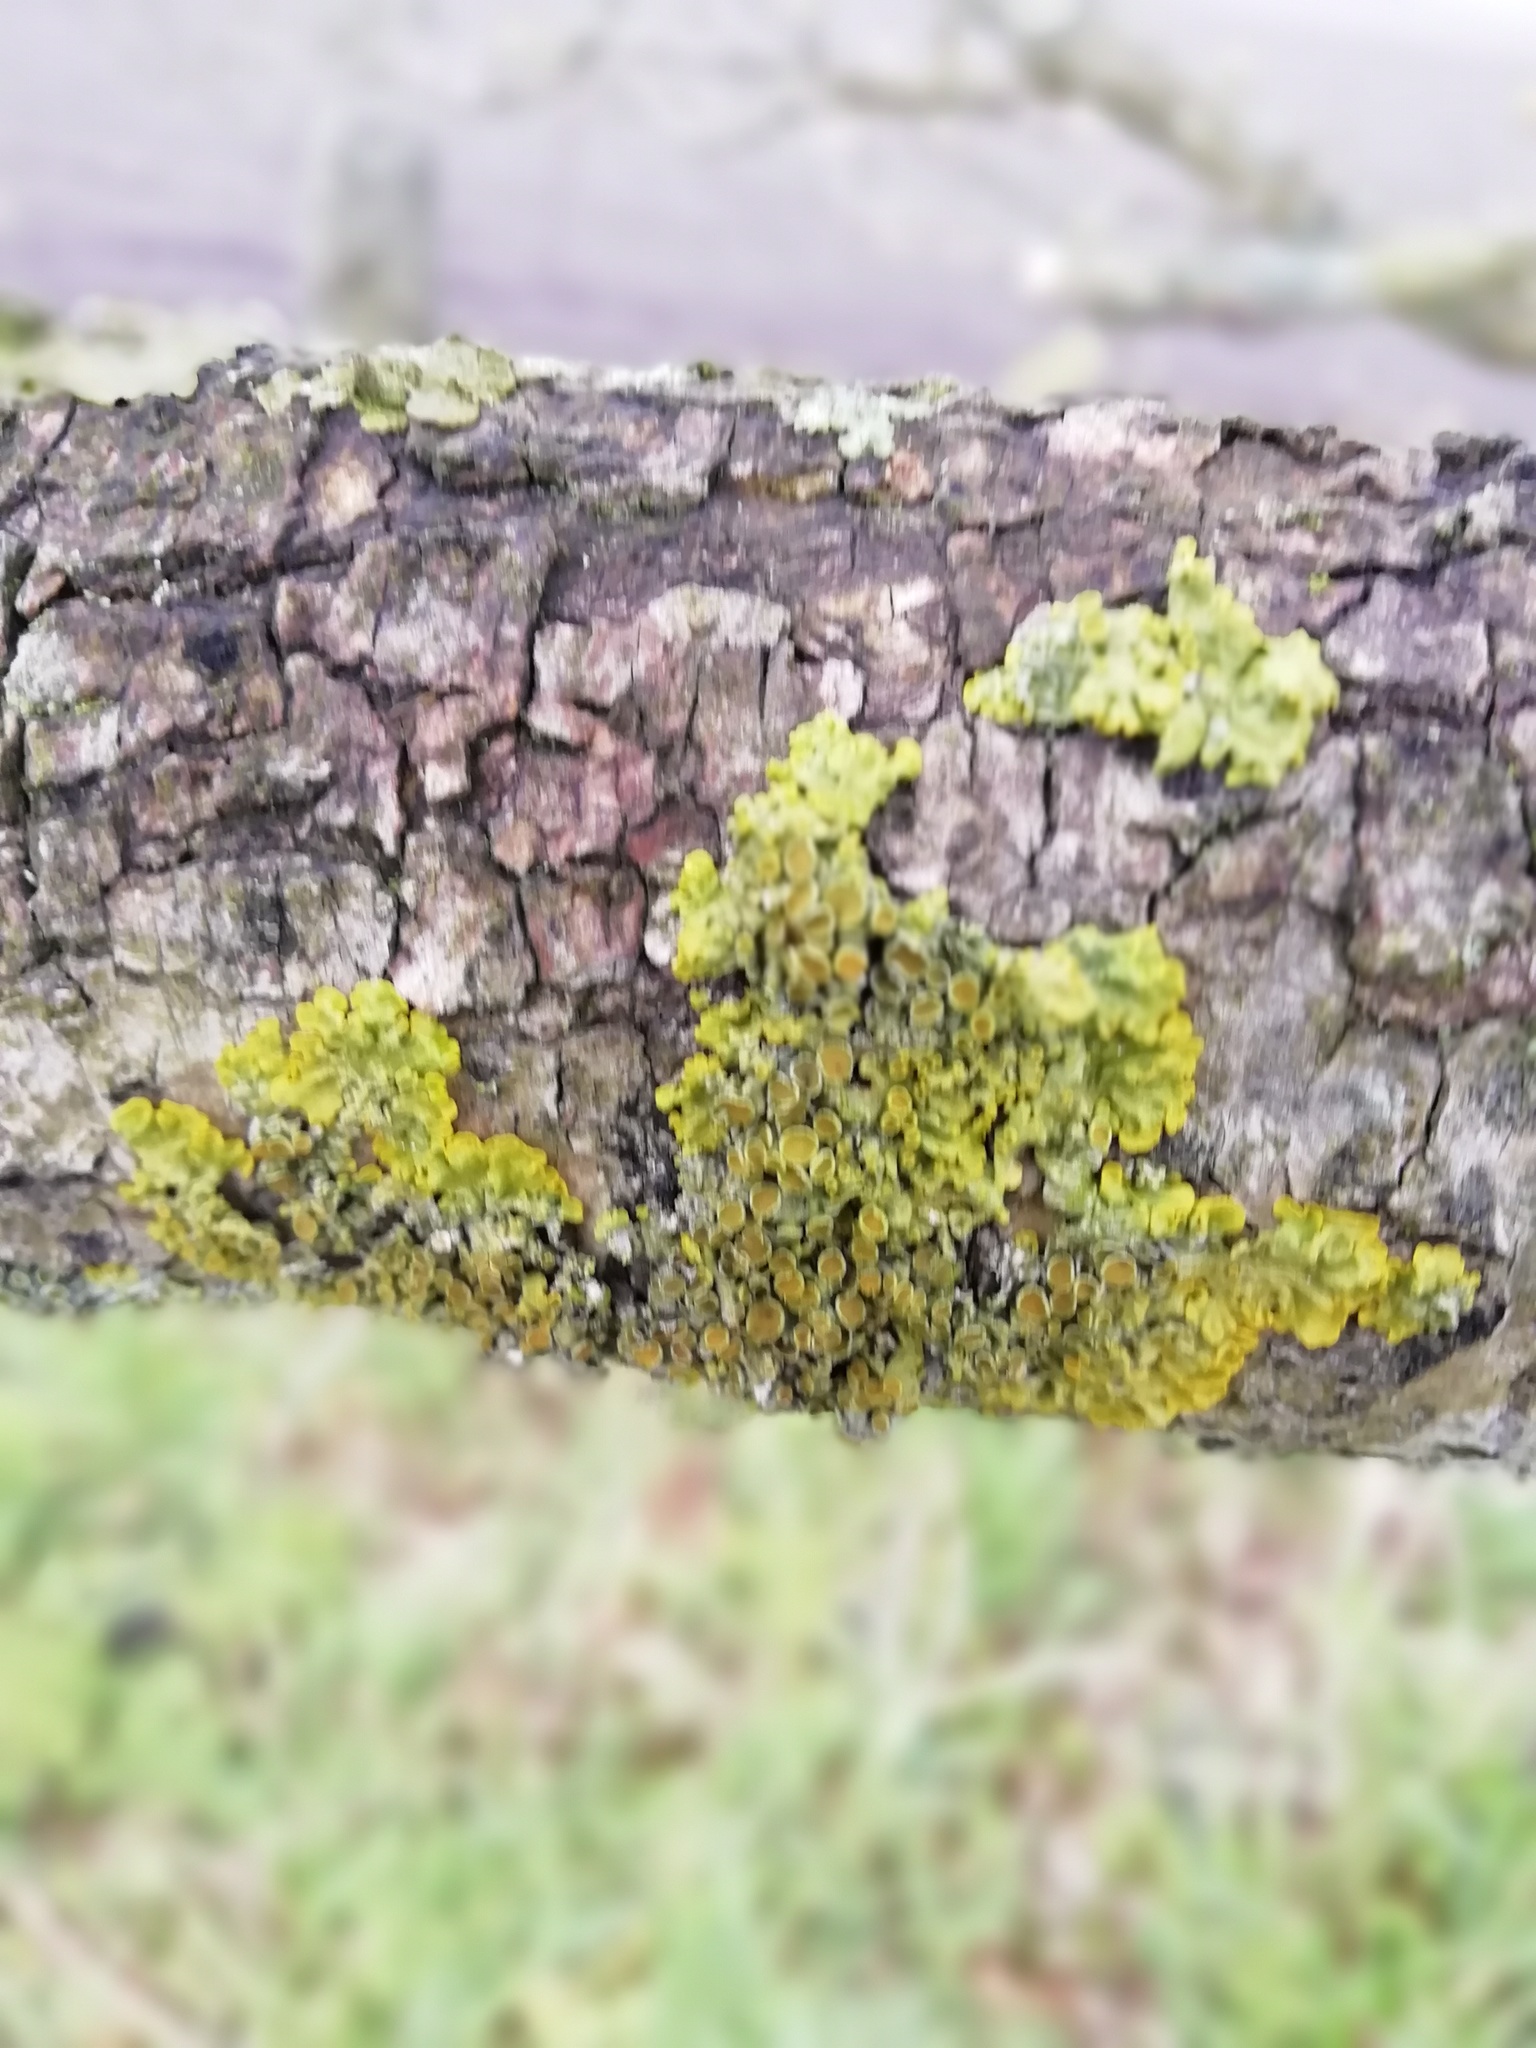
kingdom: Fungi
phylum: Ascomycota
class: Lecanoromycetes
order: Teloschistales
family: Teloschistaceae
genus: Xanthoria
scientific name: Xanthoria parietina
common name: Common orange lichen
